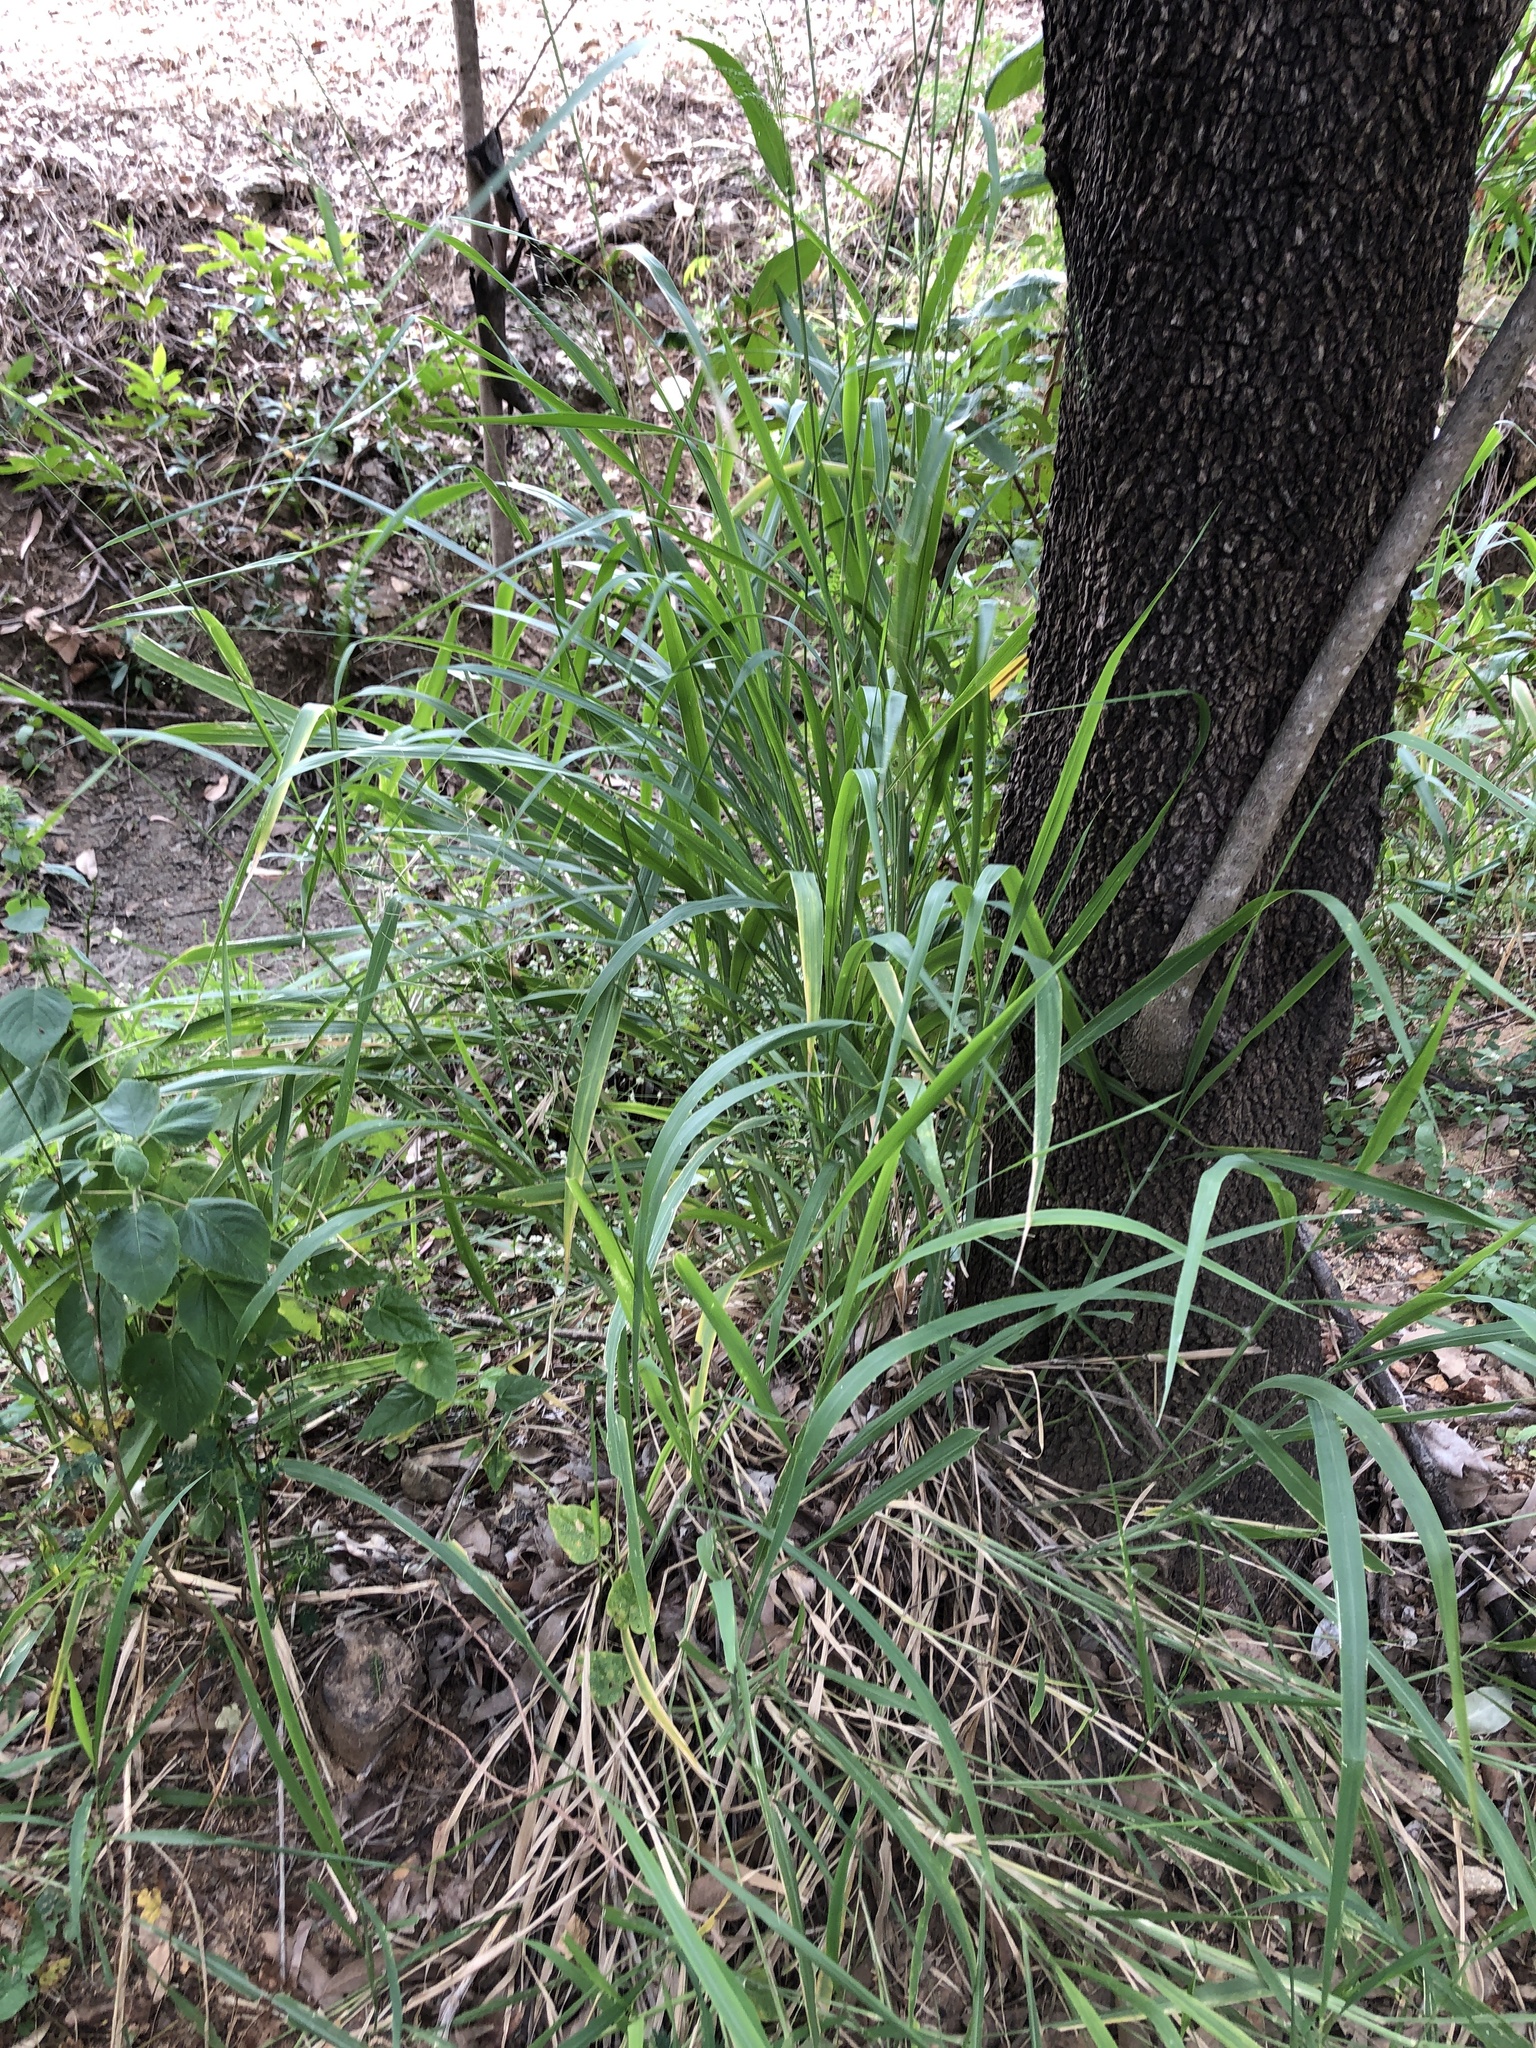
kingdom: Plantae
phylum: Tracheophyta
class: Liliopsida
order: Poales
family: Poaceae
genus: Megathyrsus
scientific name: Megathyrsus maximus
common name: Guineagrass
